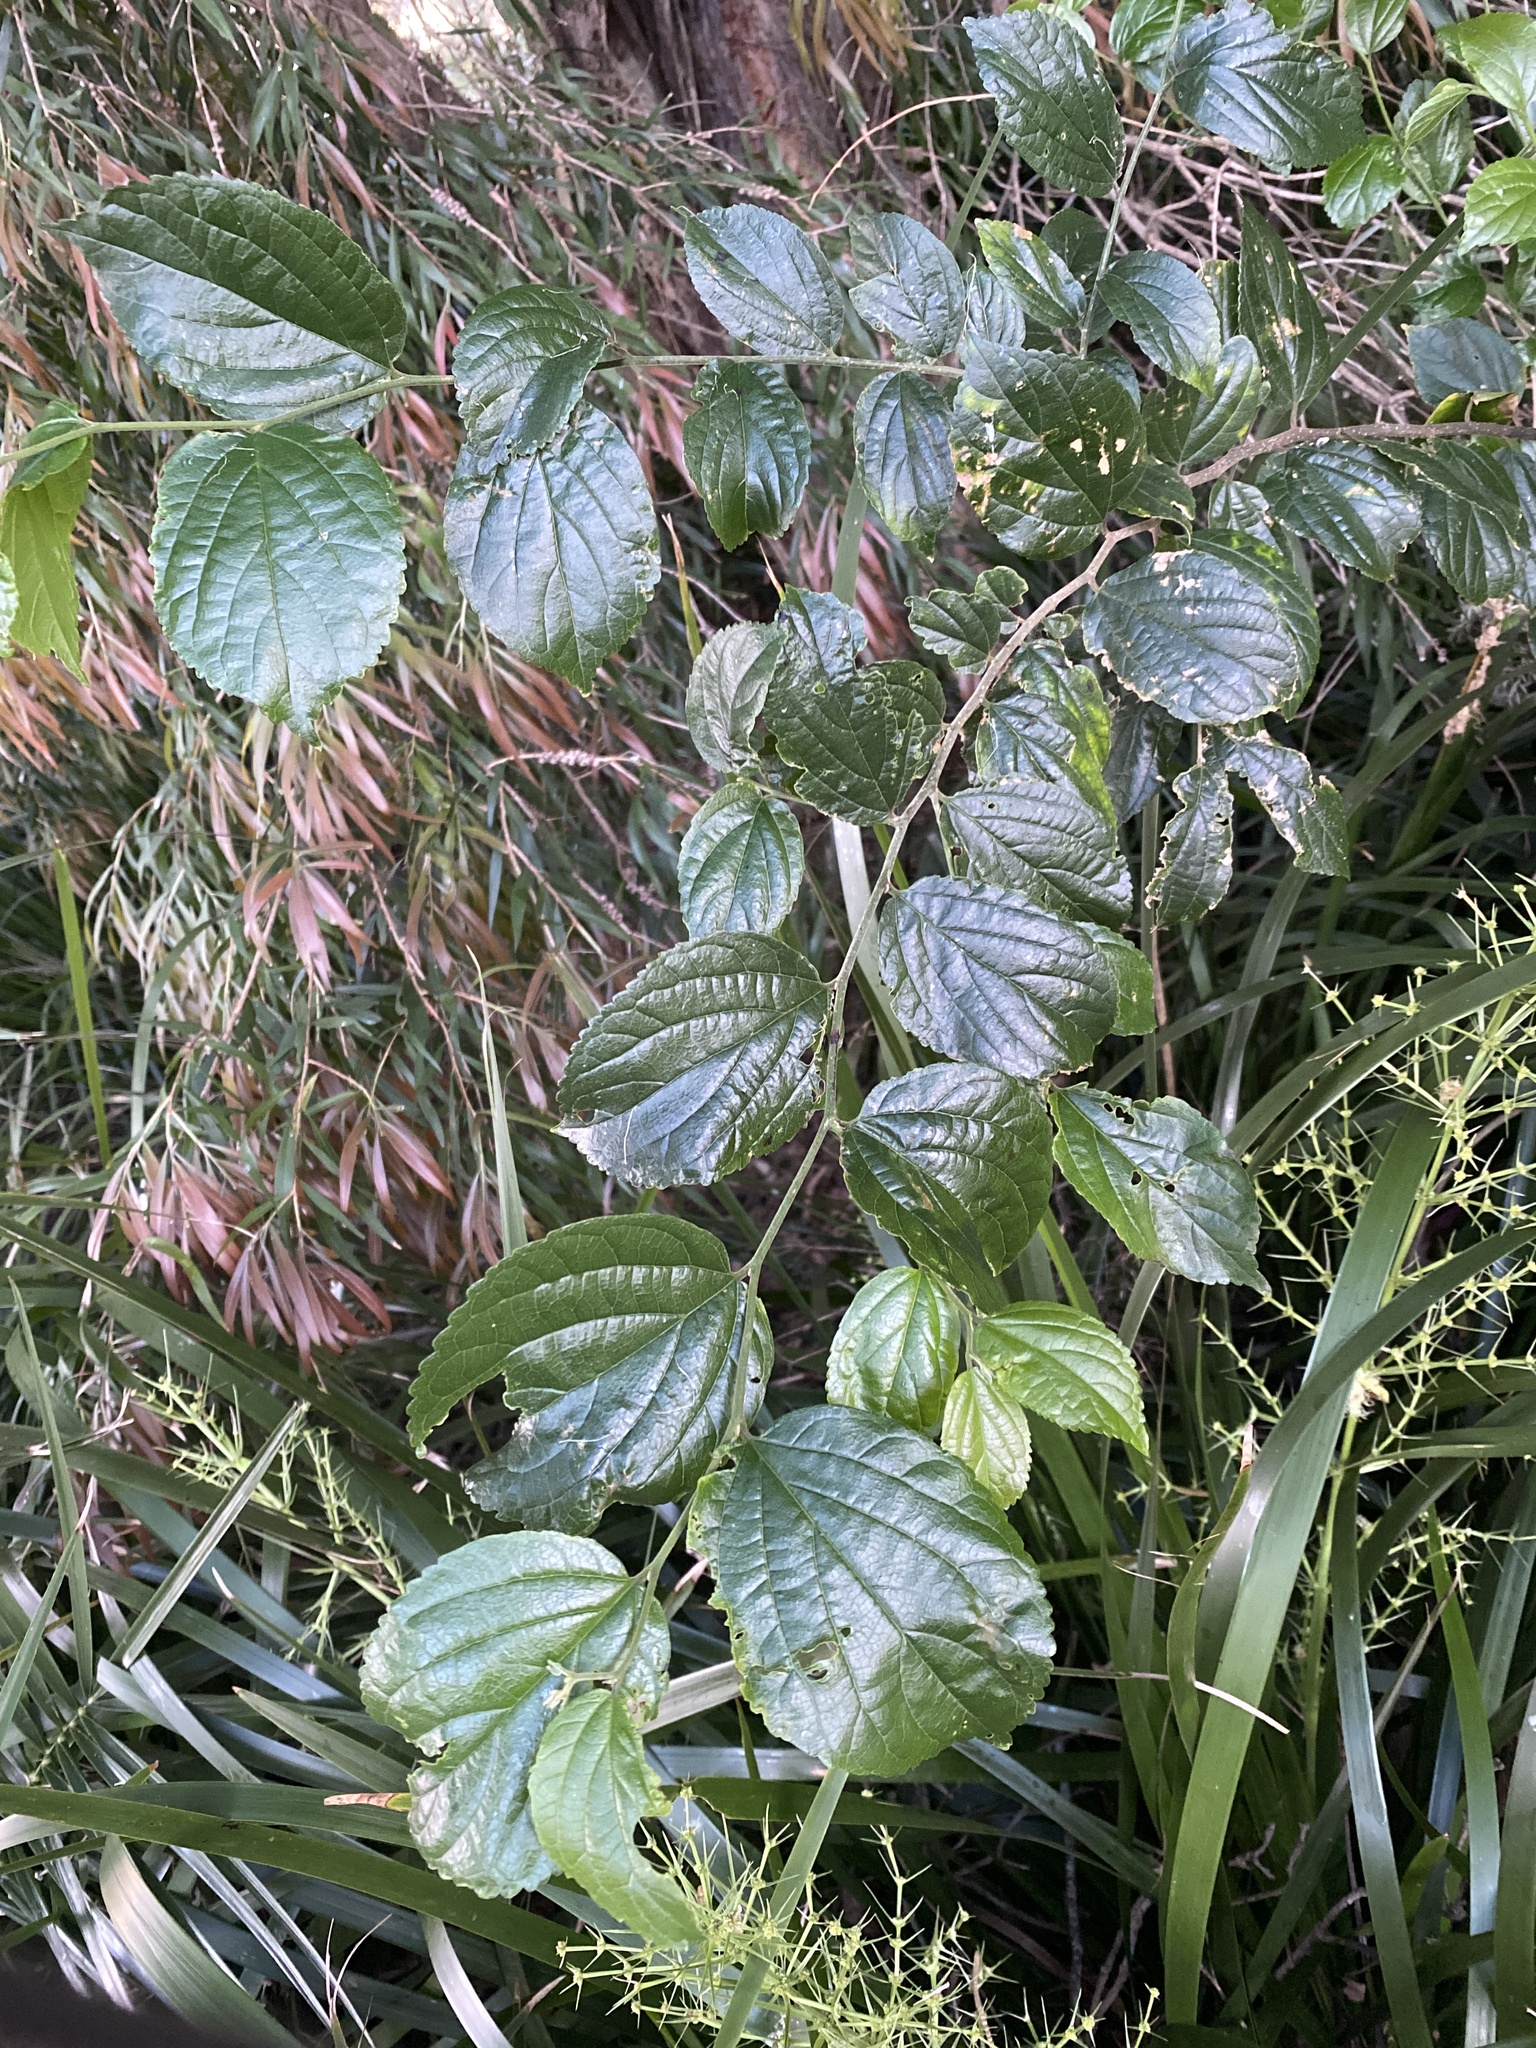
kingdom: Plantae
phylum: Tracheophyta
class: Magnoliopsida
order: Rosales
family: Cannabaceae
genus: Celtis
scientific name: Celtis sinensis
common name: Chinese hackberry
